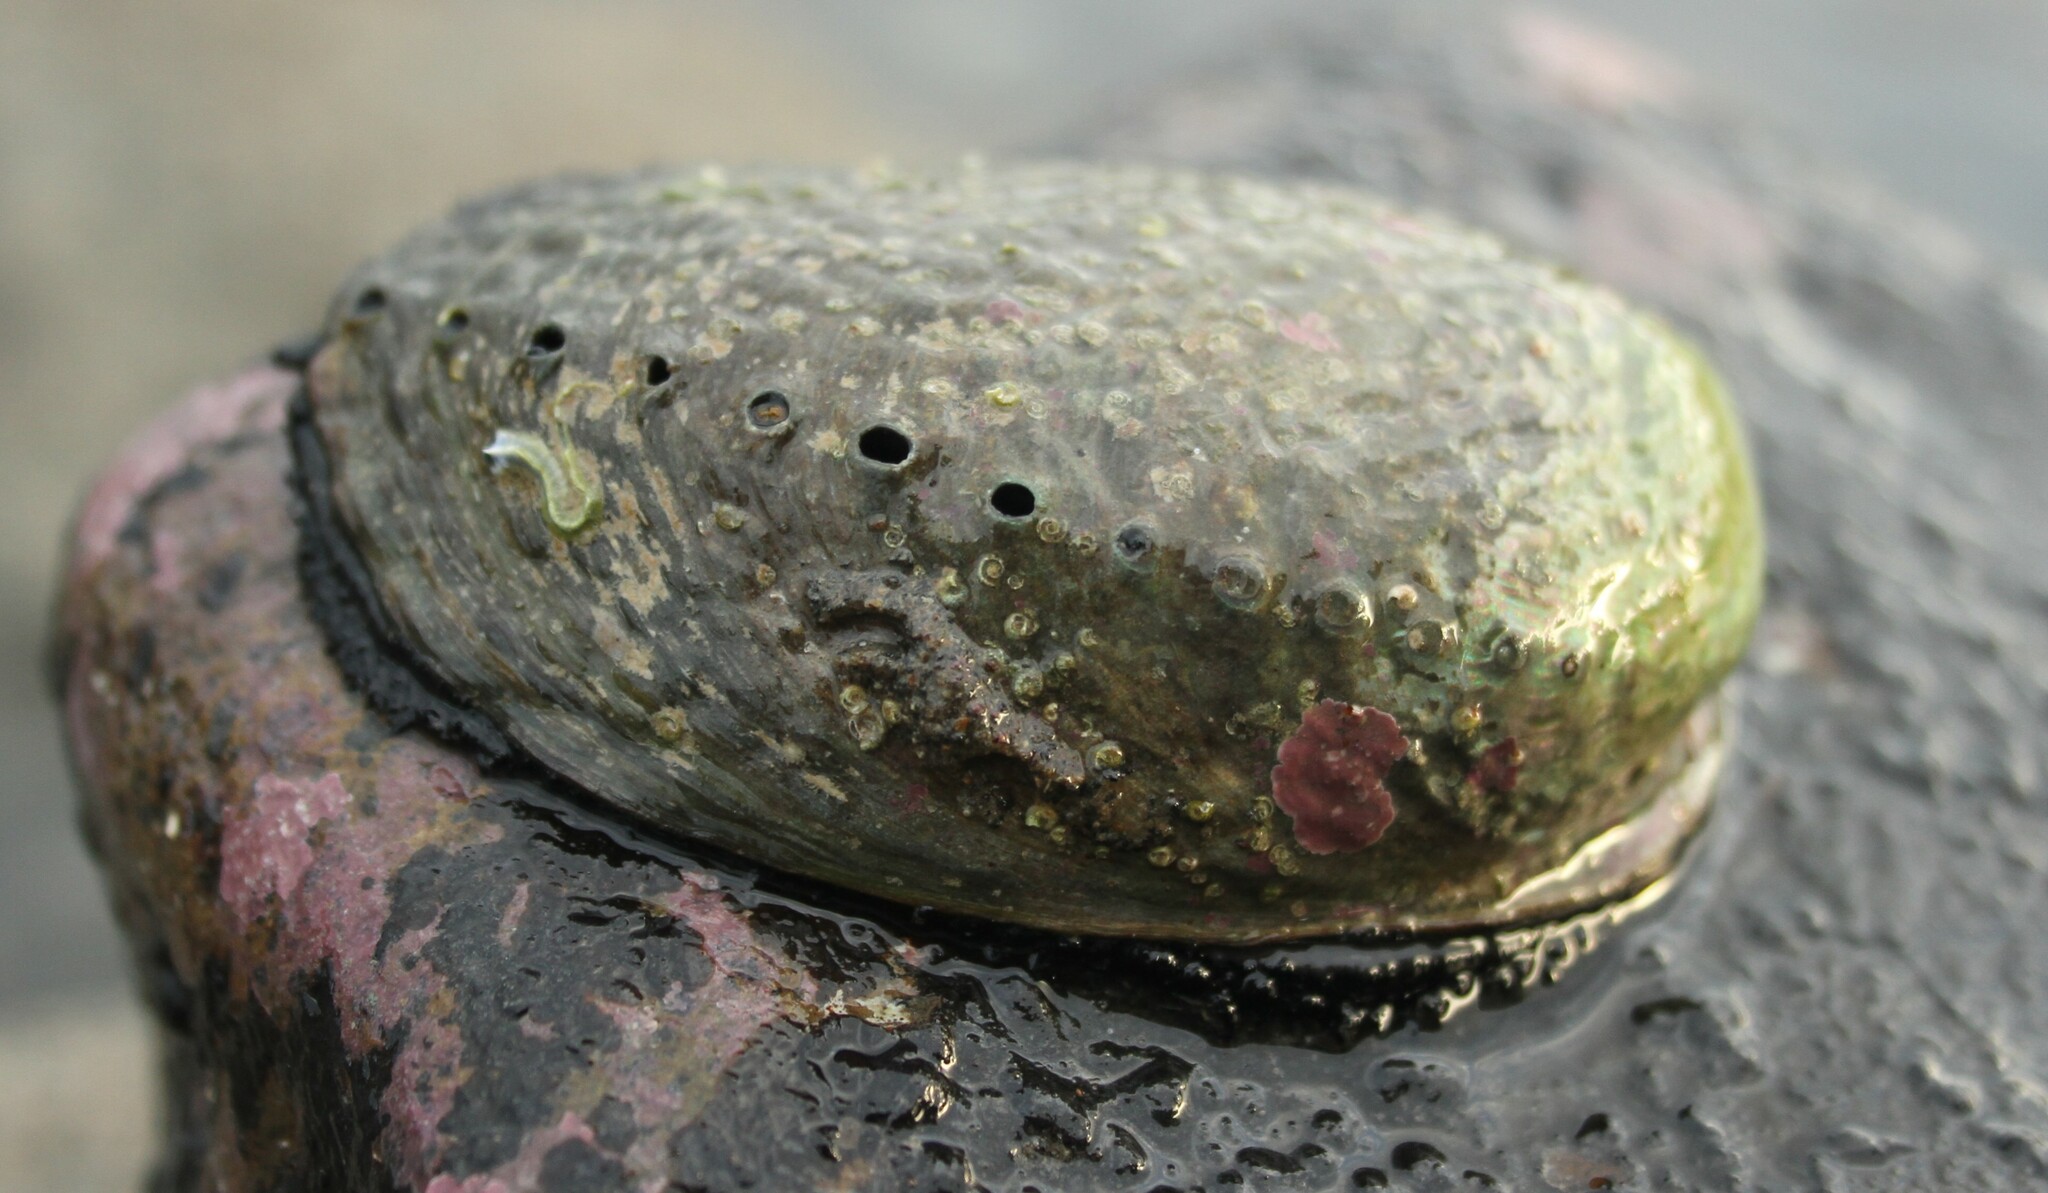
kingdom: Animalia
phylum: Mollusca
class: Gastropoda
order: Lepetellida
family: Haliotidae
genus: Haliotis
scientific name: Haliotis iris
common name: Abalone
